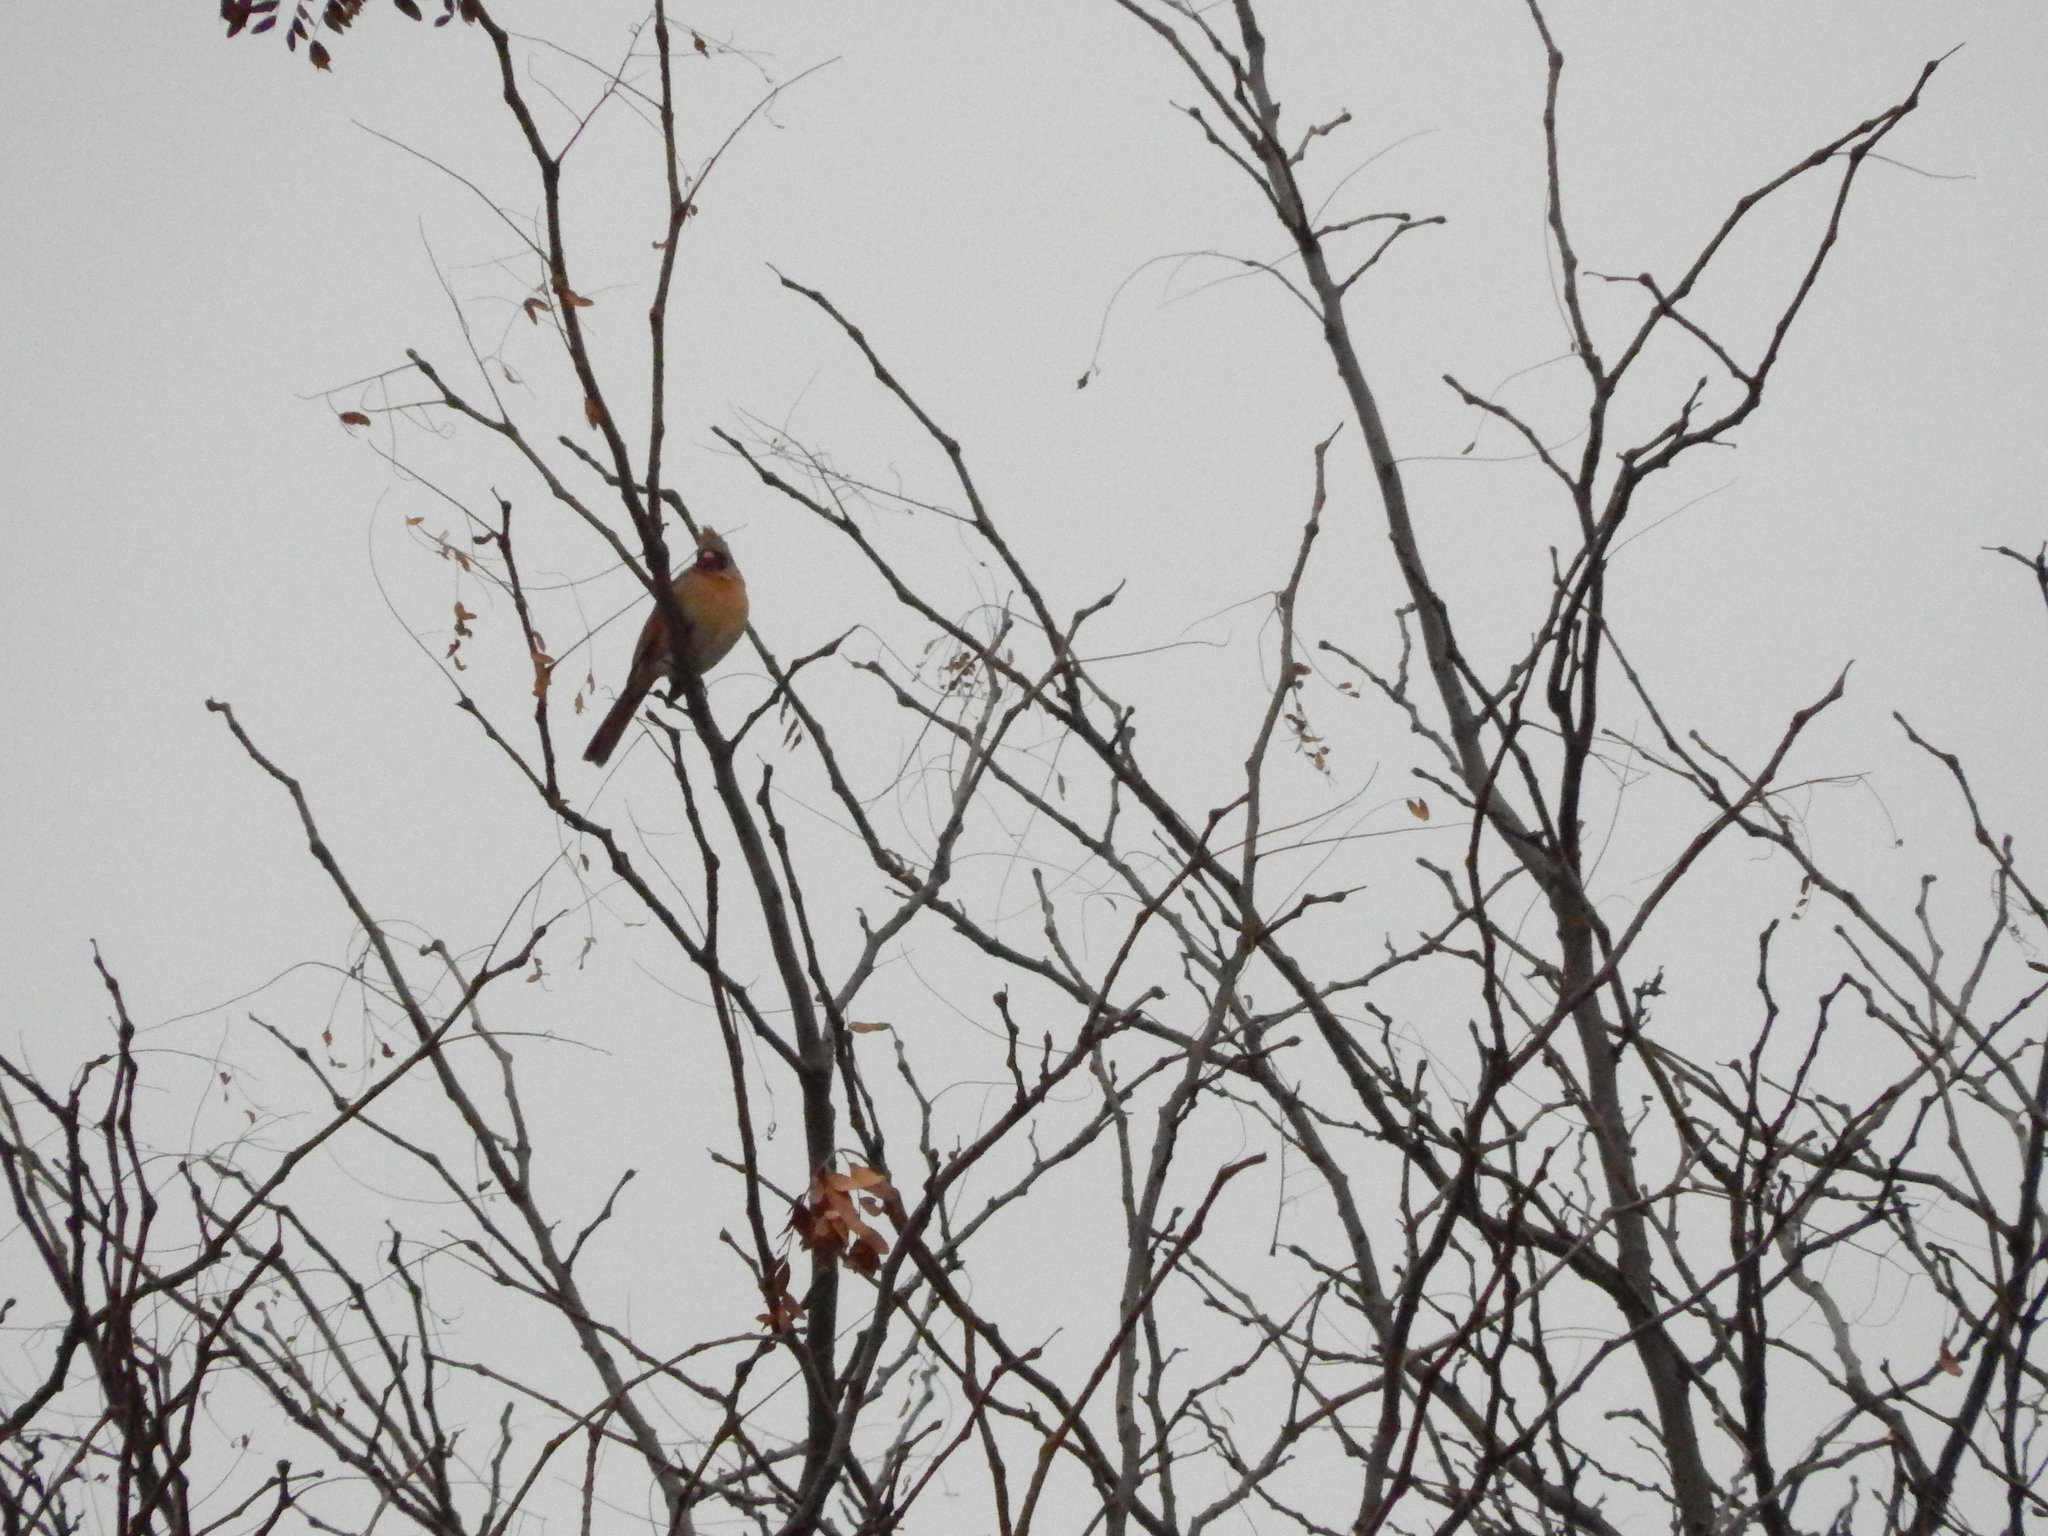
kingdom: Animalia
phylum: Chordata
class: Aves
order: Passeriformes
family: Cardinalidae
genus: Cardinalis
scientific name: Cardinalis cardinalis
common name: Northern cardinal
